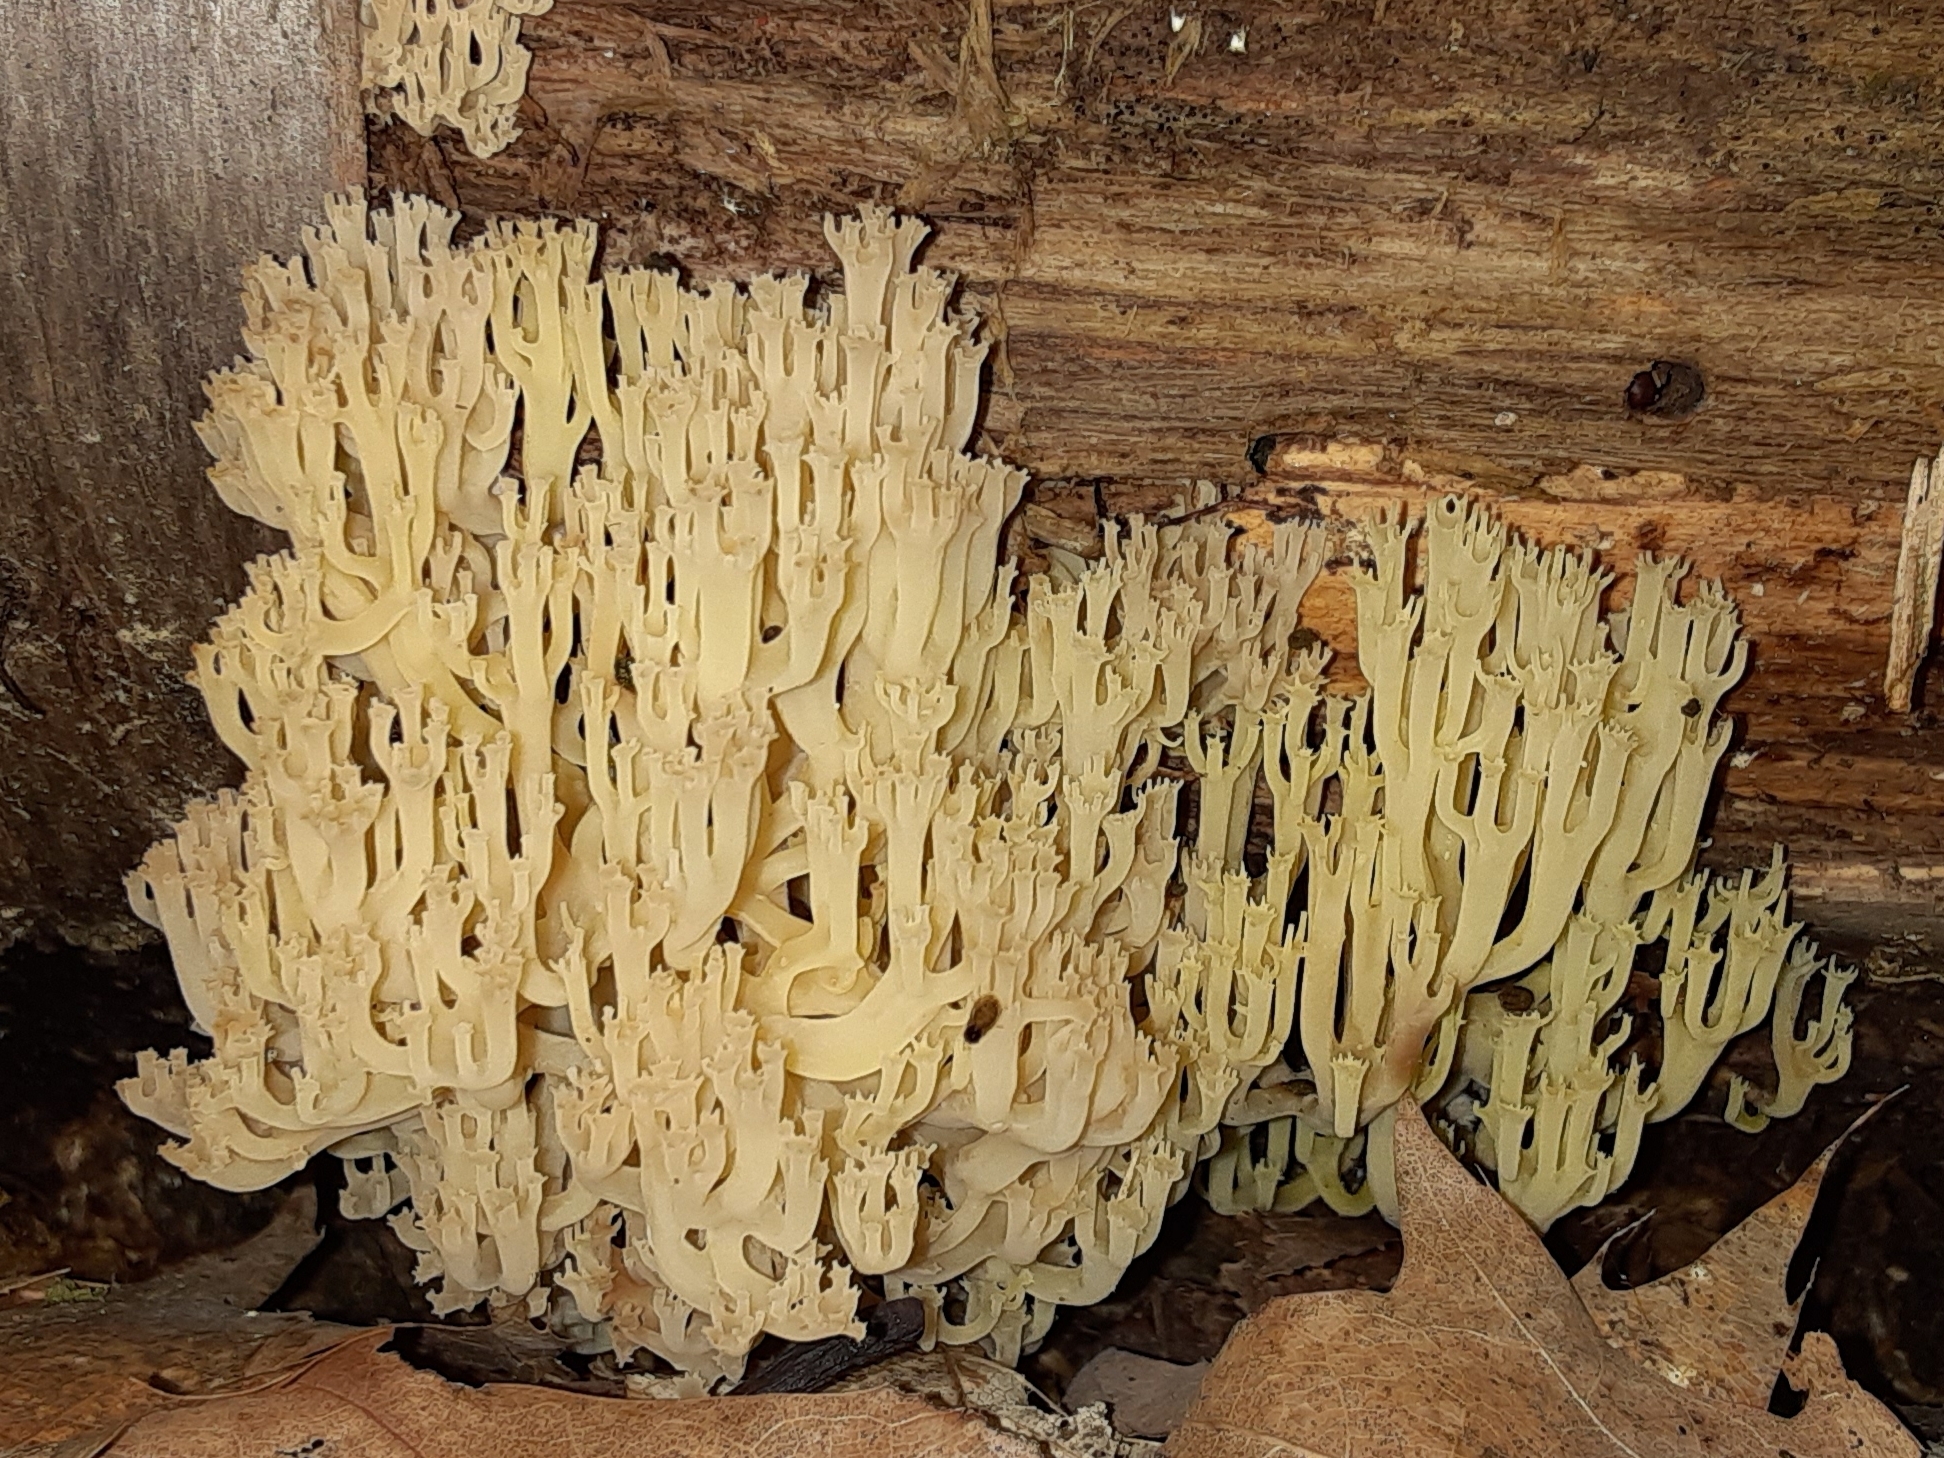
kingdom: Fungi
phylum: Basidiomycota
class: Agaricomycetes
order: Russulales
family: Auriscalpiaceae
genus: Artomyces
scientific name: Artomyces pyxidatus
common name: Crown-tipped coral fungus
